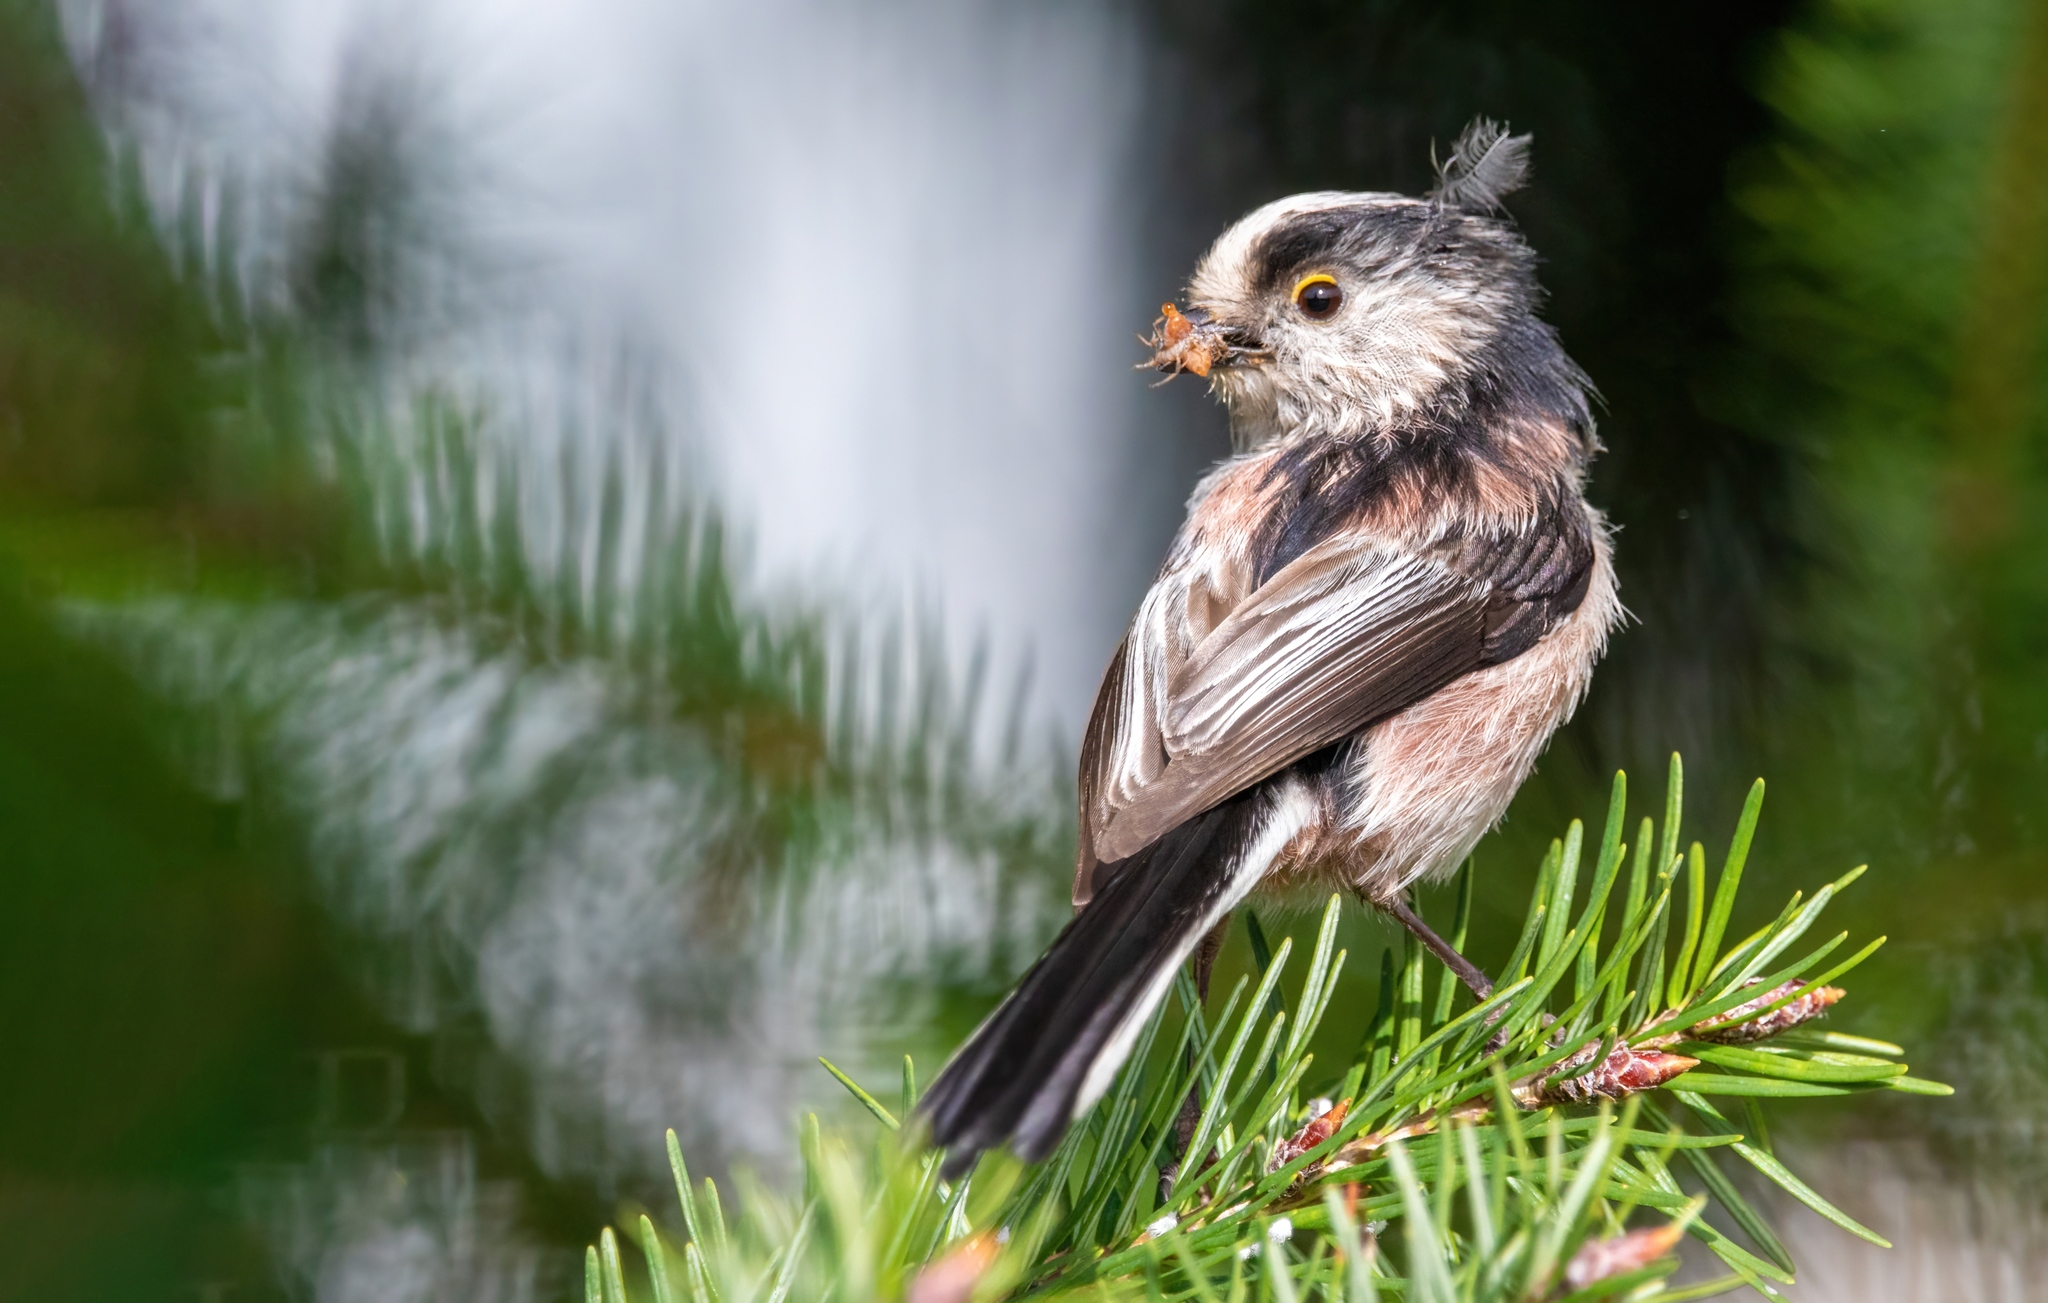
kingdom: Animalia
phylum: Chordata
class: Aves
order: Passeriformes
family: Aegithalidae
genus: Aegithalos
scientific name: Aegithalos caudatus
